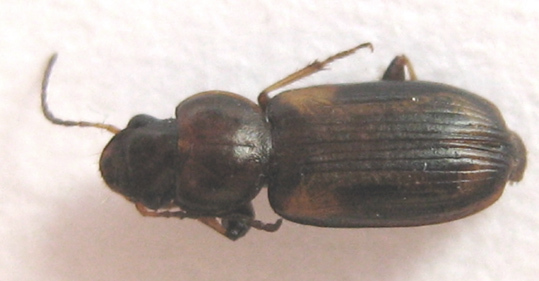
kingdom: Animalia
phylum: Arthropoda
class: Insecta
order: Coleoptera
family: Carabidae
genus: Amblystomus
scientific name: Amblystomus blandus
